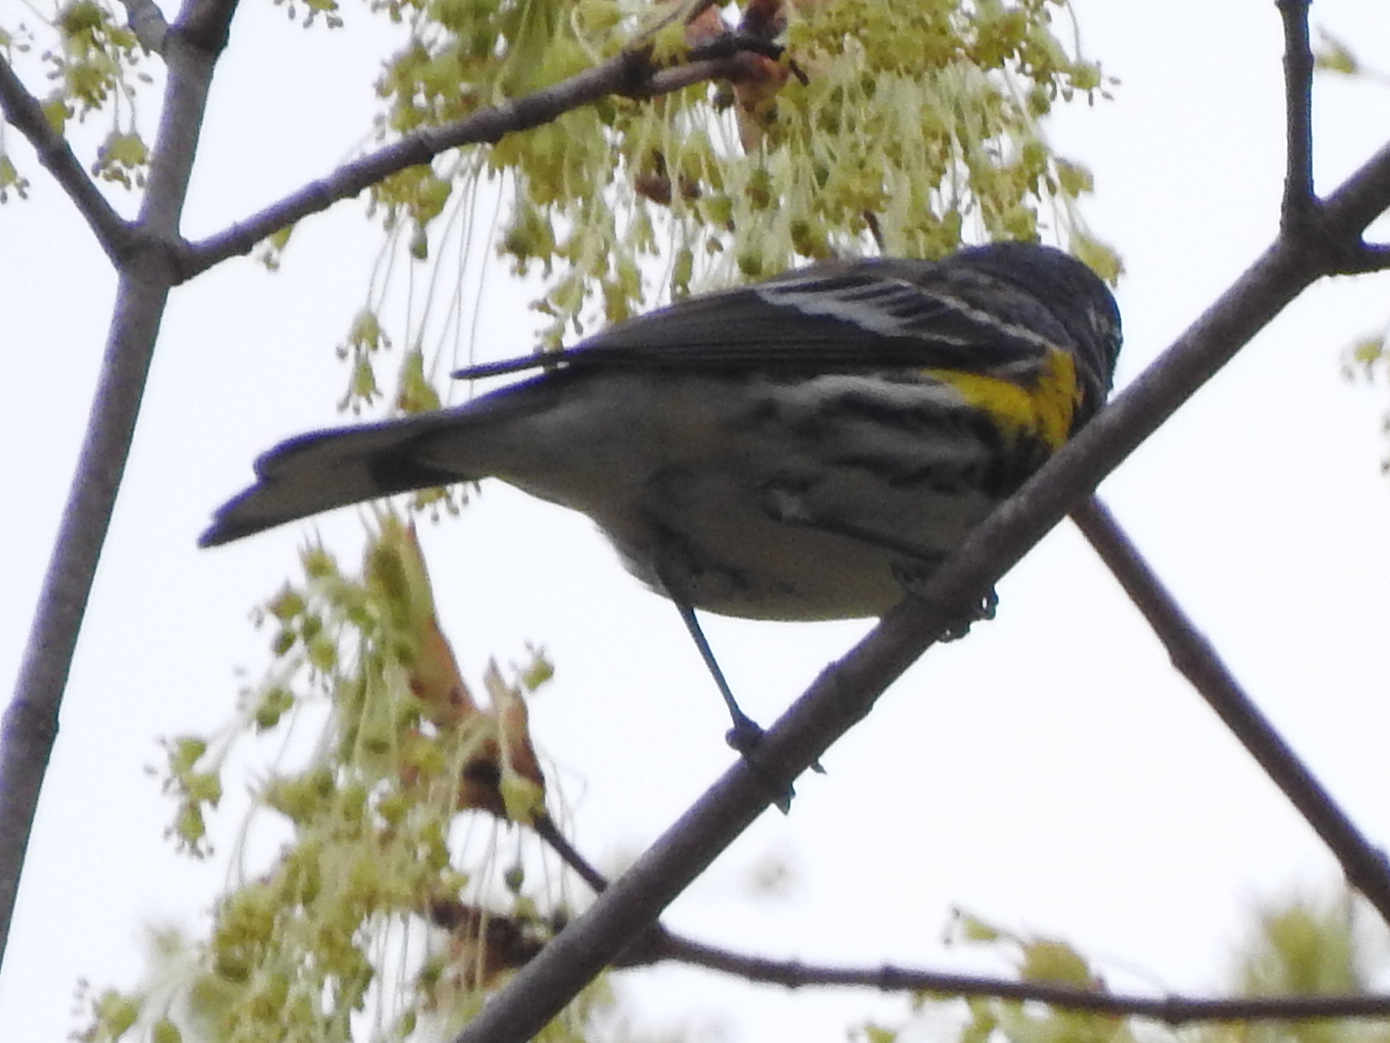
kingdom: Animalia
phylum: Chordata
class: Aves
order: Passeriformes
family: Parulidae
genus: Setophaga
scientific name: Setophaga coronata
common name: Myrtle warbler
